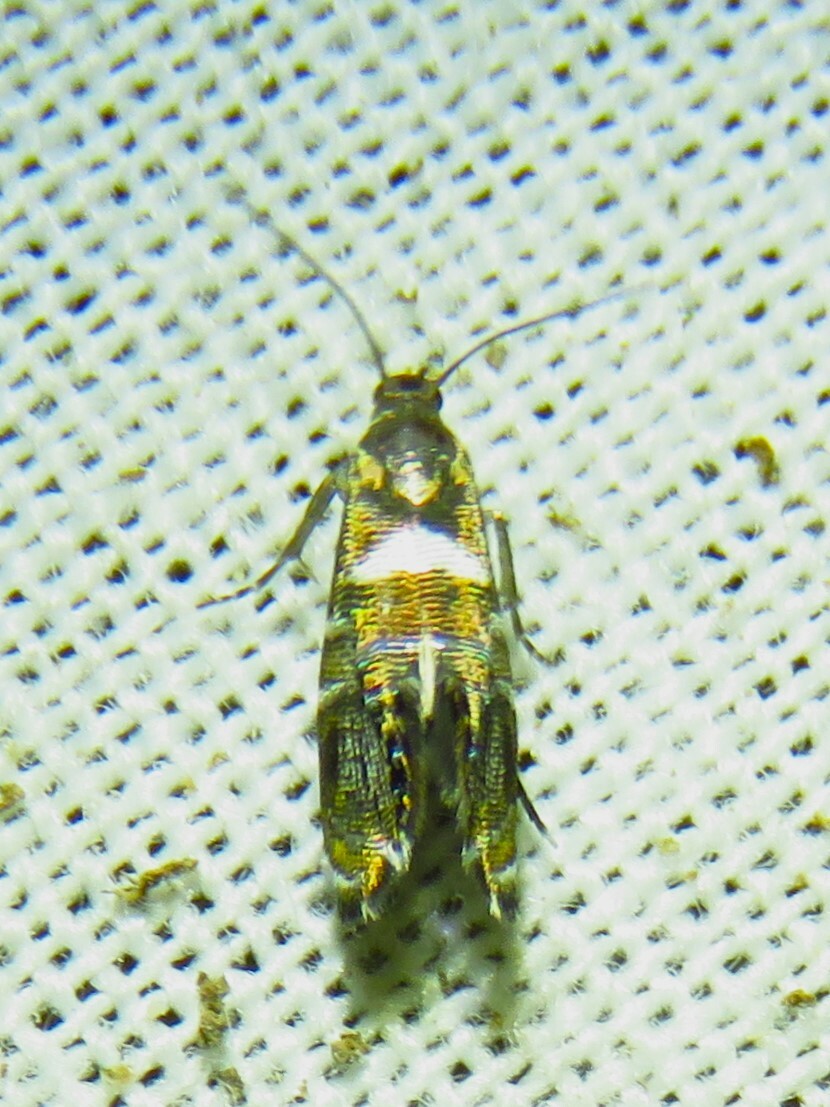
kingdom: Animalia
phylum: Arthropoda
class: Insecta
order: Lepidoptera
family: Glyphipterigidae
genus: Glyphipterix
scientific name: Glyphipterix circumscriptella
